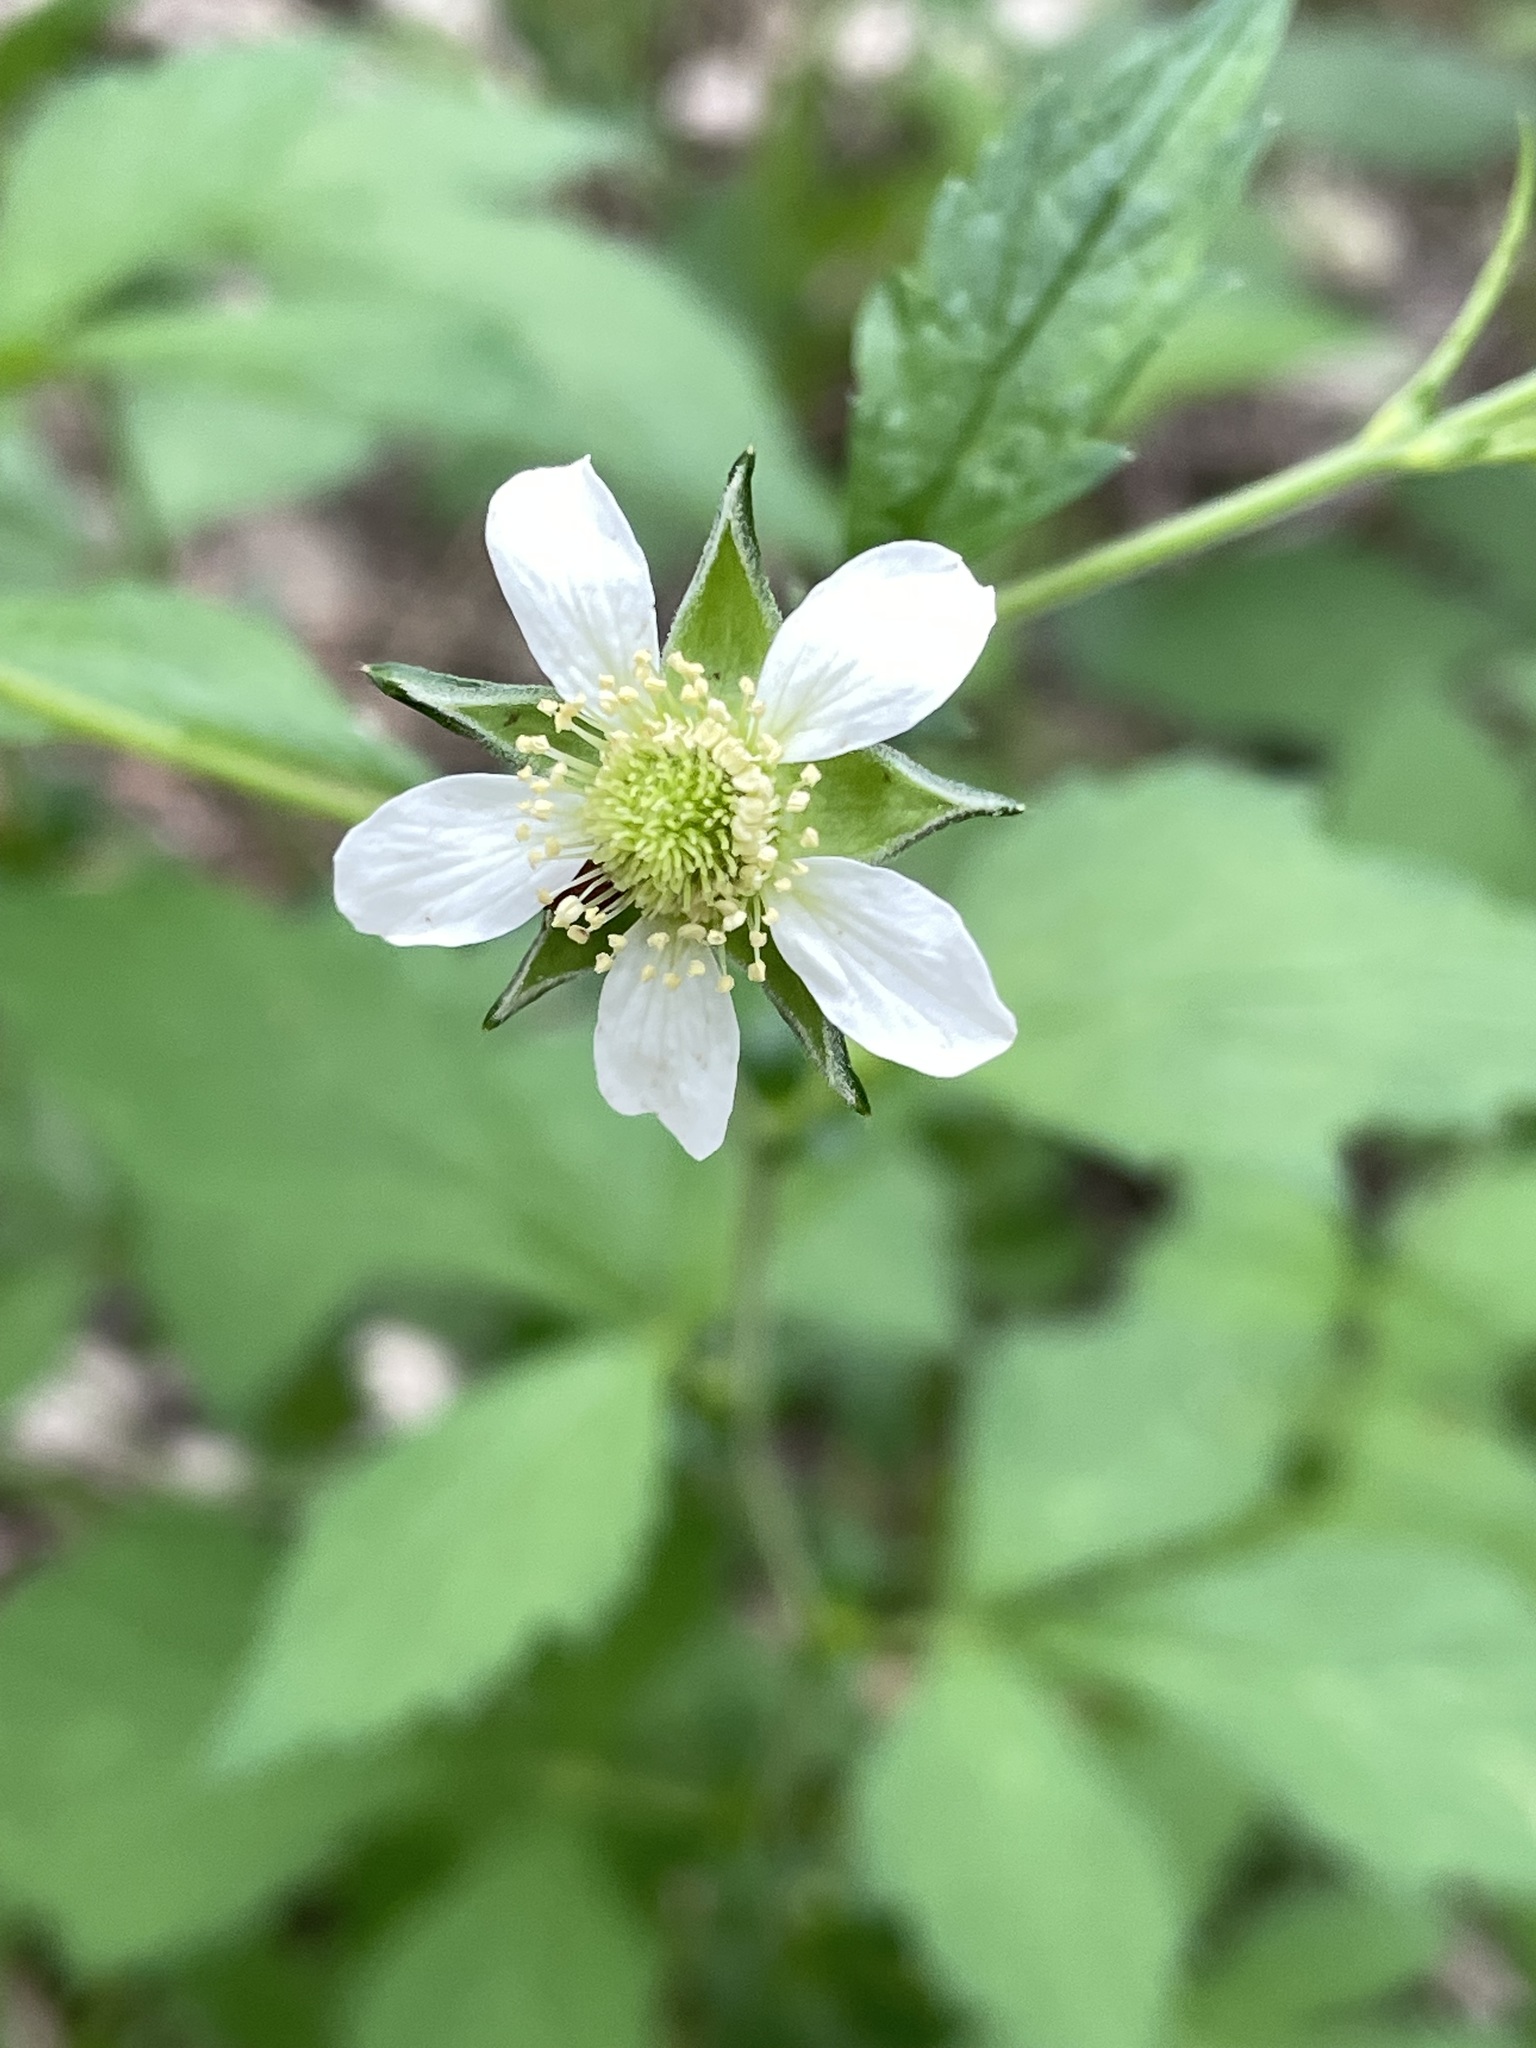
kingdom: Plantae
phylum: Tracheophyta
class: Magnoliopsida
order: Rosales
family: Rosaceae
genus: Geum
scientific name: Geum canadense
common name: White avens
